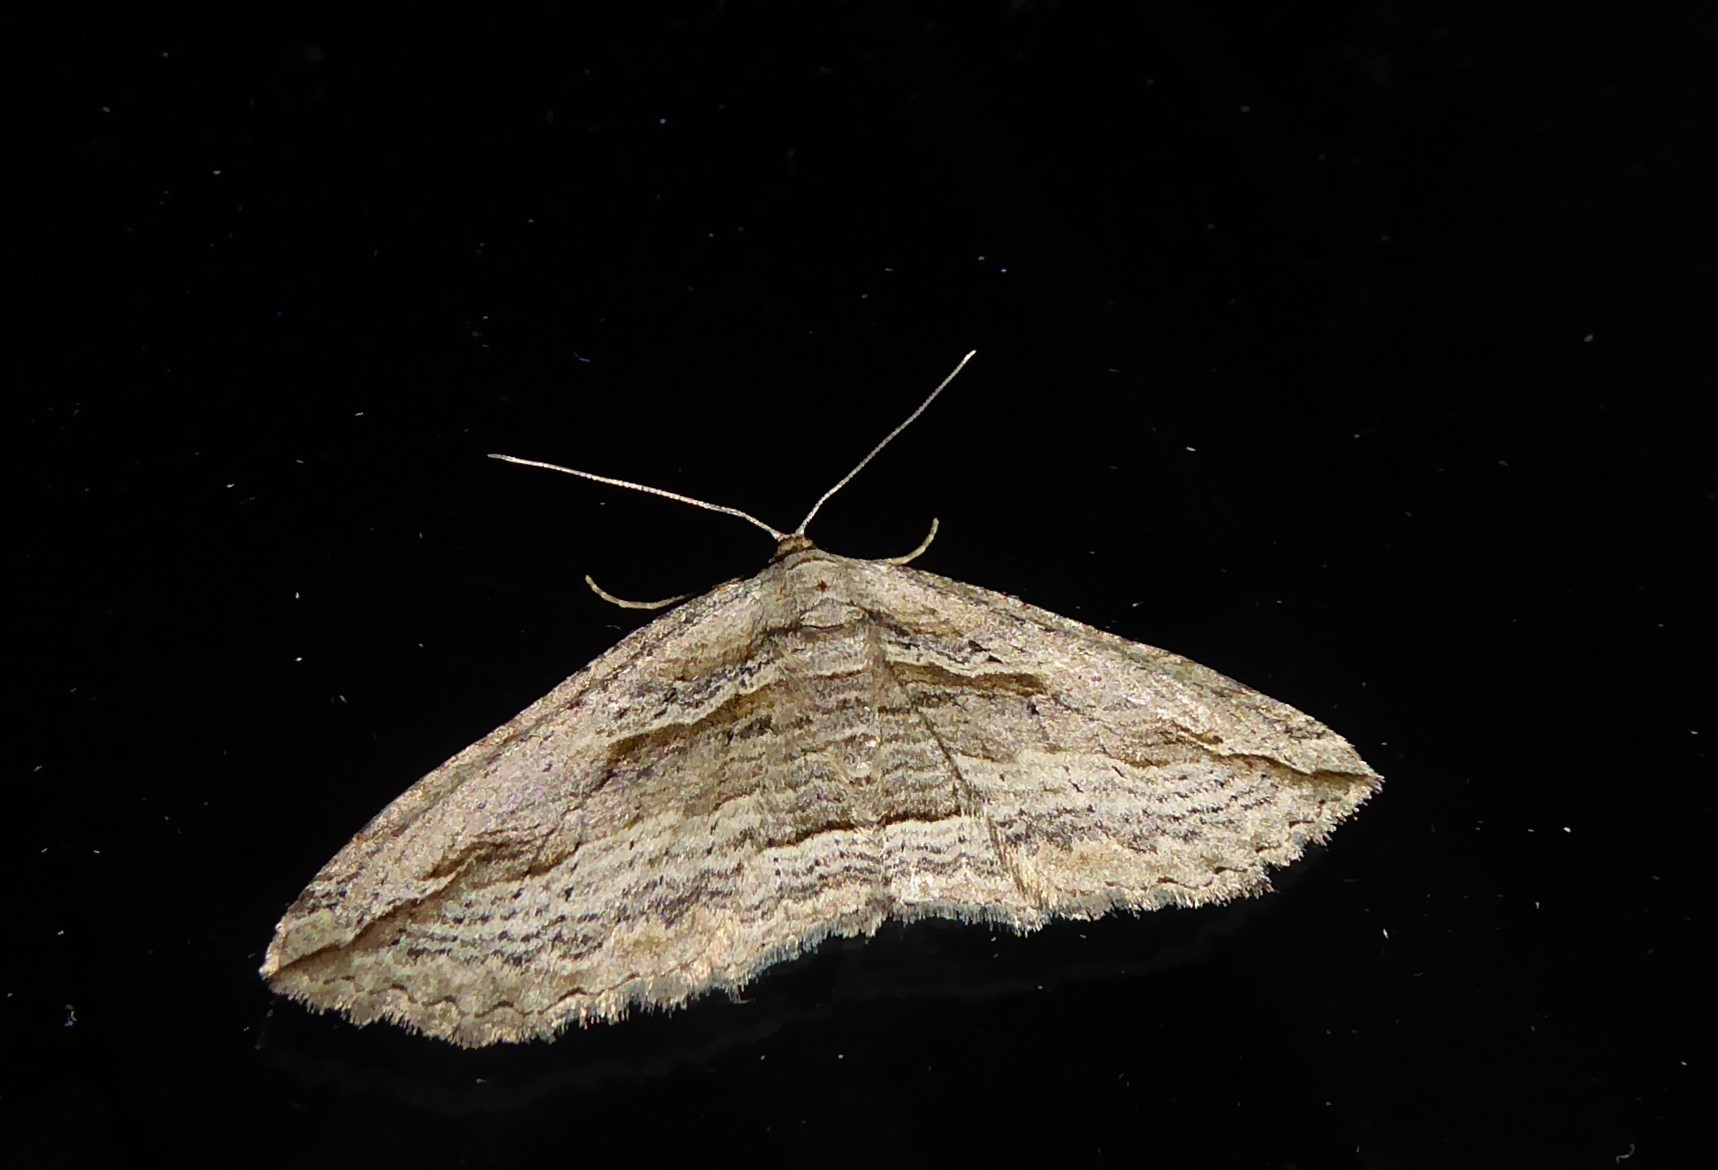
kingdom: Animalia
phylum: Arthropoda
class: Insecta
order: Lepidoptera
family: Geometridae
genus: Austrocidaria
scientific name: Austrocidaria gobiata
